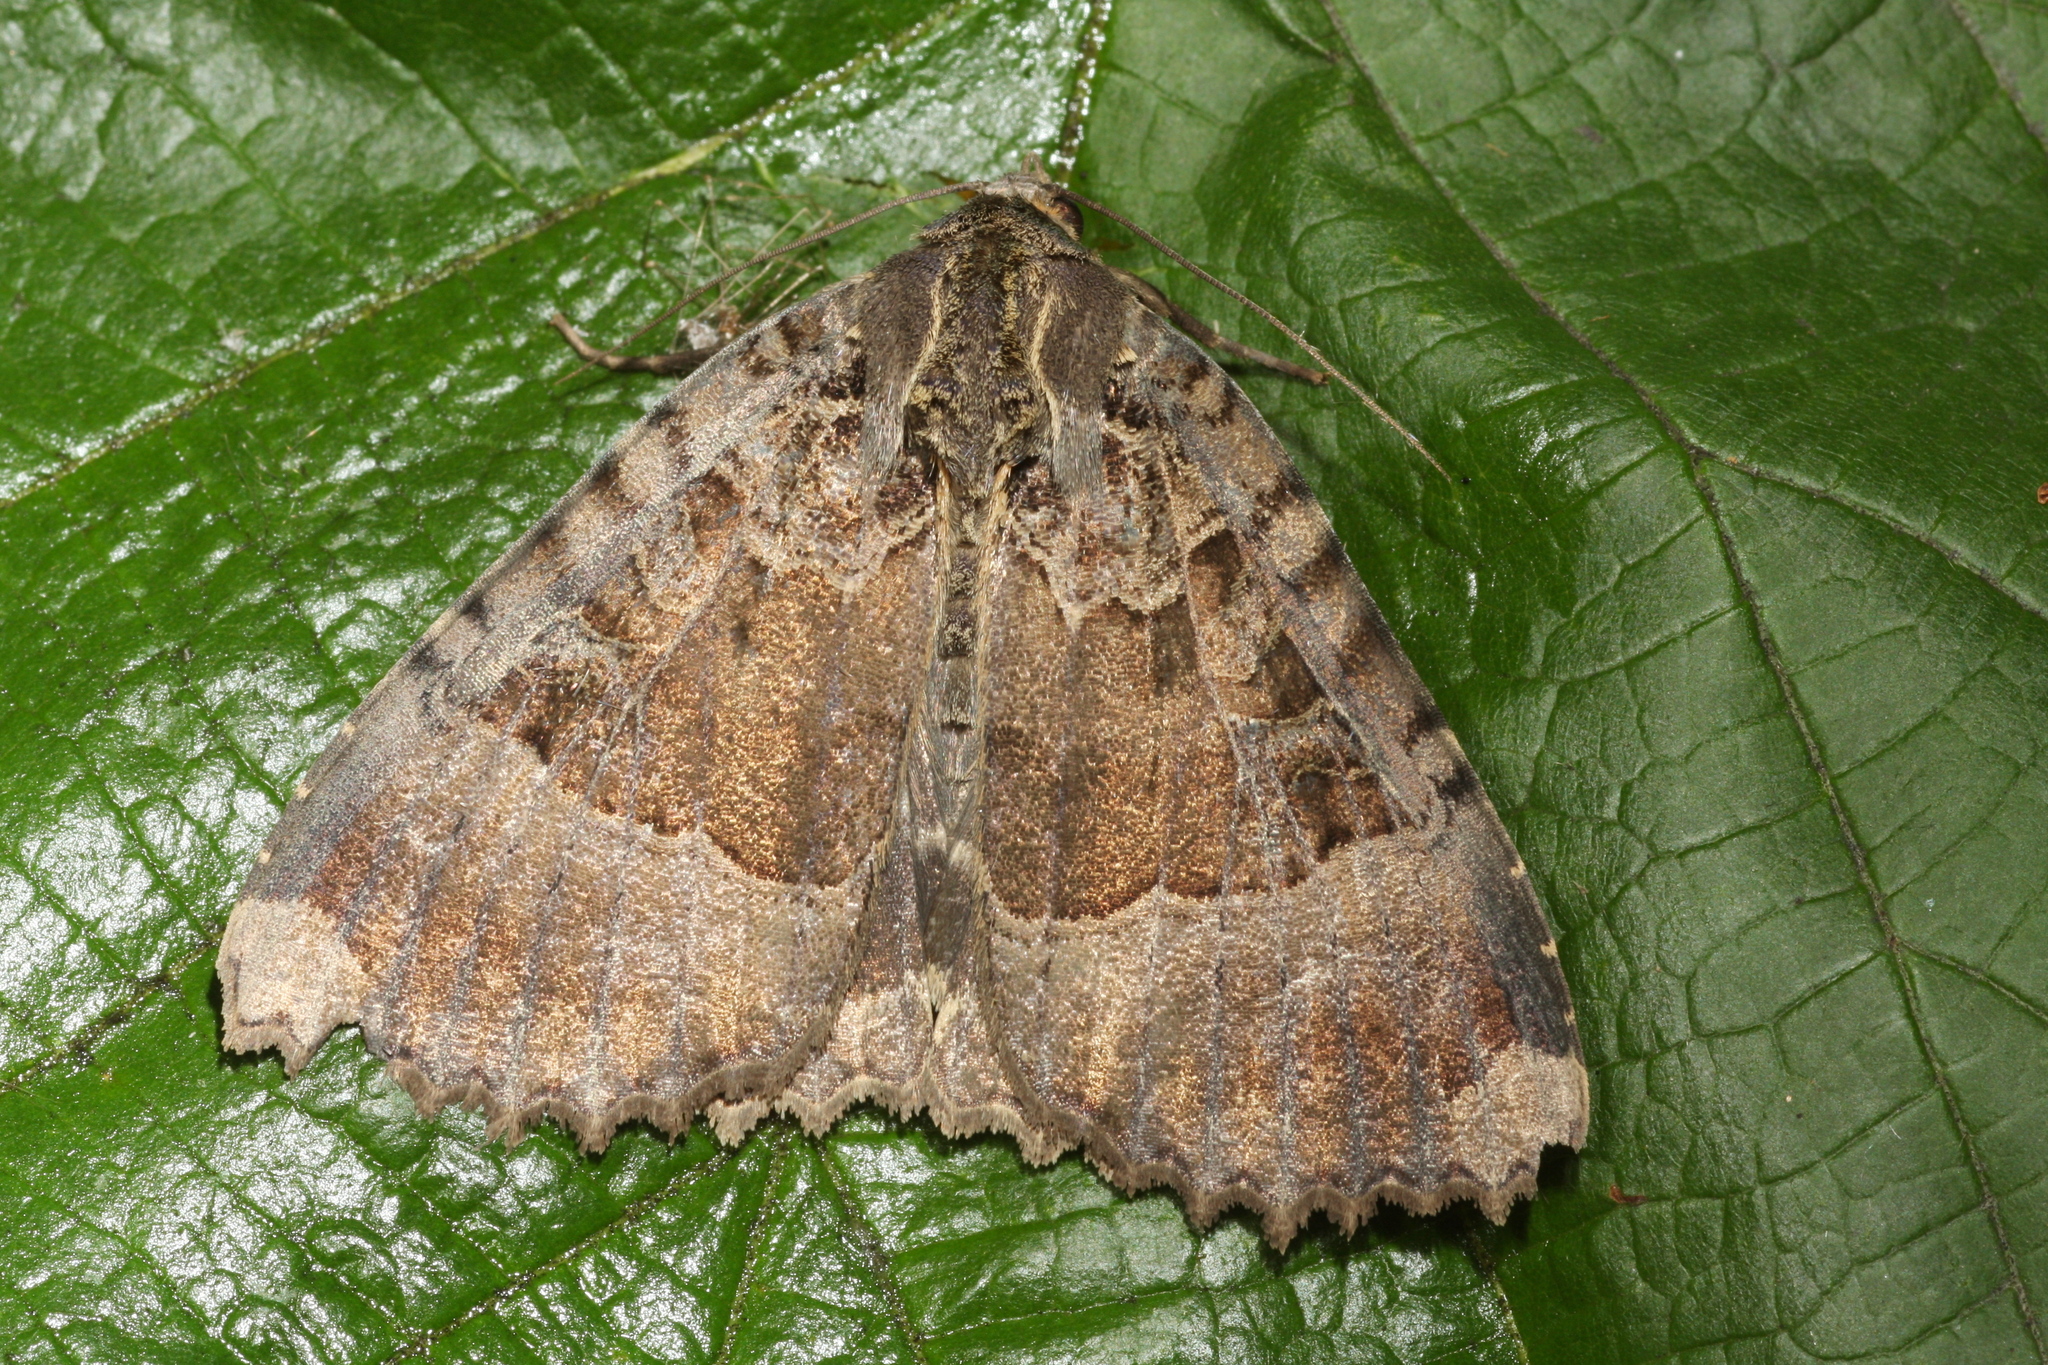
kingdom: Animalia
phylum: Arthropoda
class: Insecta
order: Lepidoptera
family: Noctuidae
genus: Mormo
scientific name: Mormo maura
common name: Old lady
